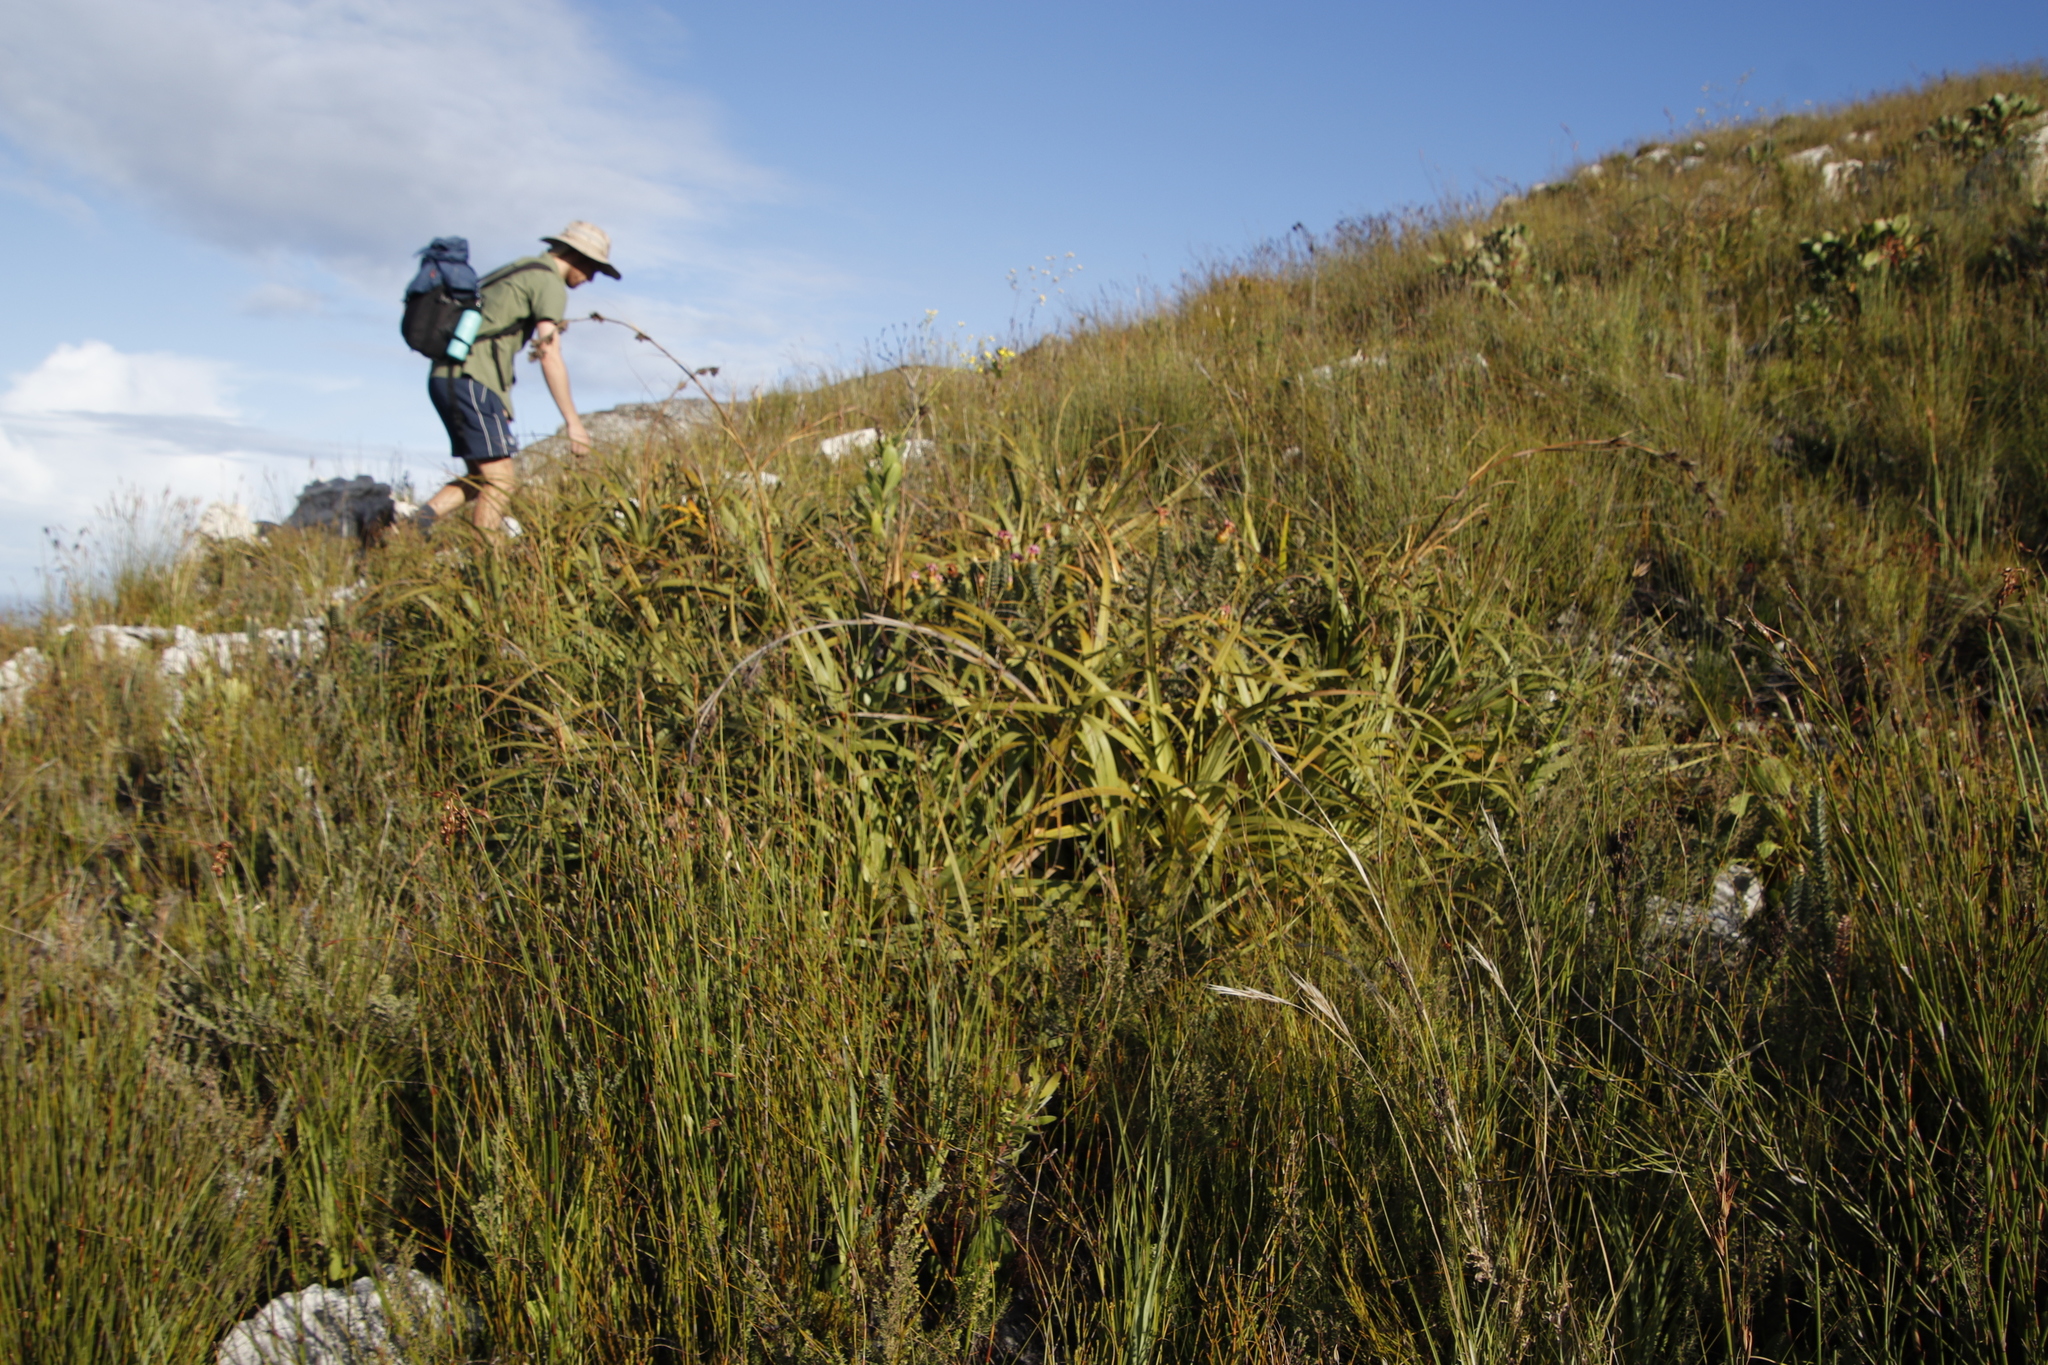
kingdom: Plantae
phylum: Tracheophyta
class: Liliopsida
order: Poales
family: Cyperaceae
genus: Tetraria
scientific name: Tetraria thermalis
